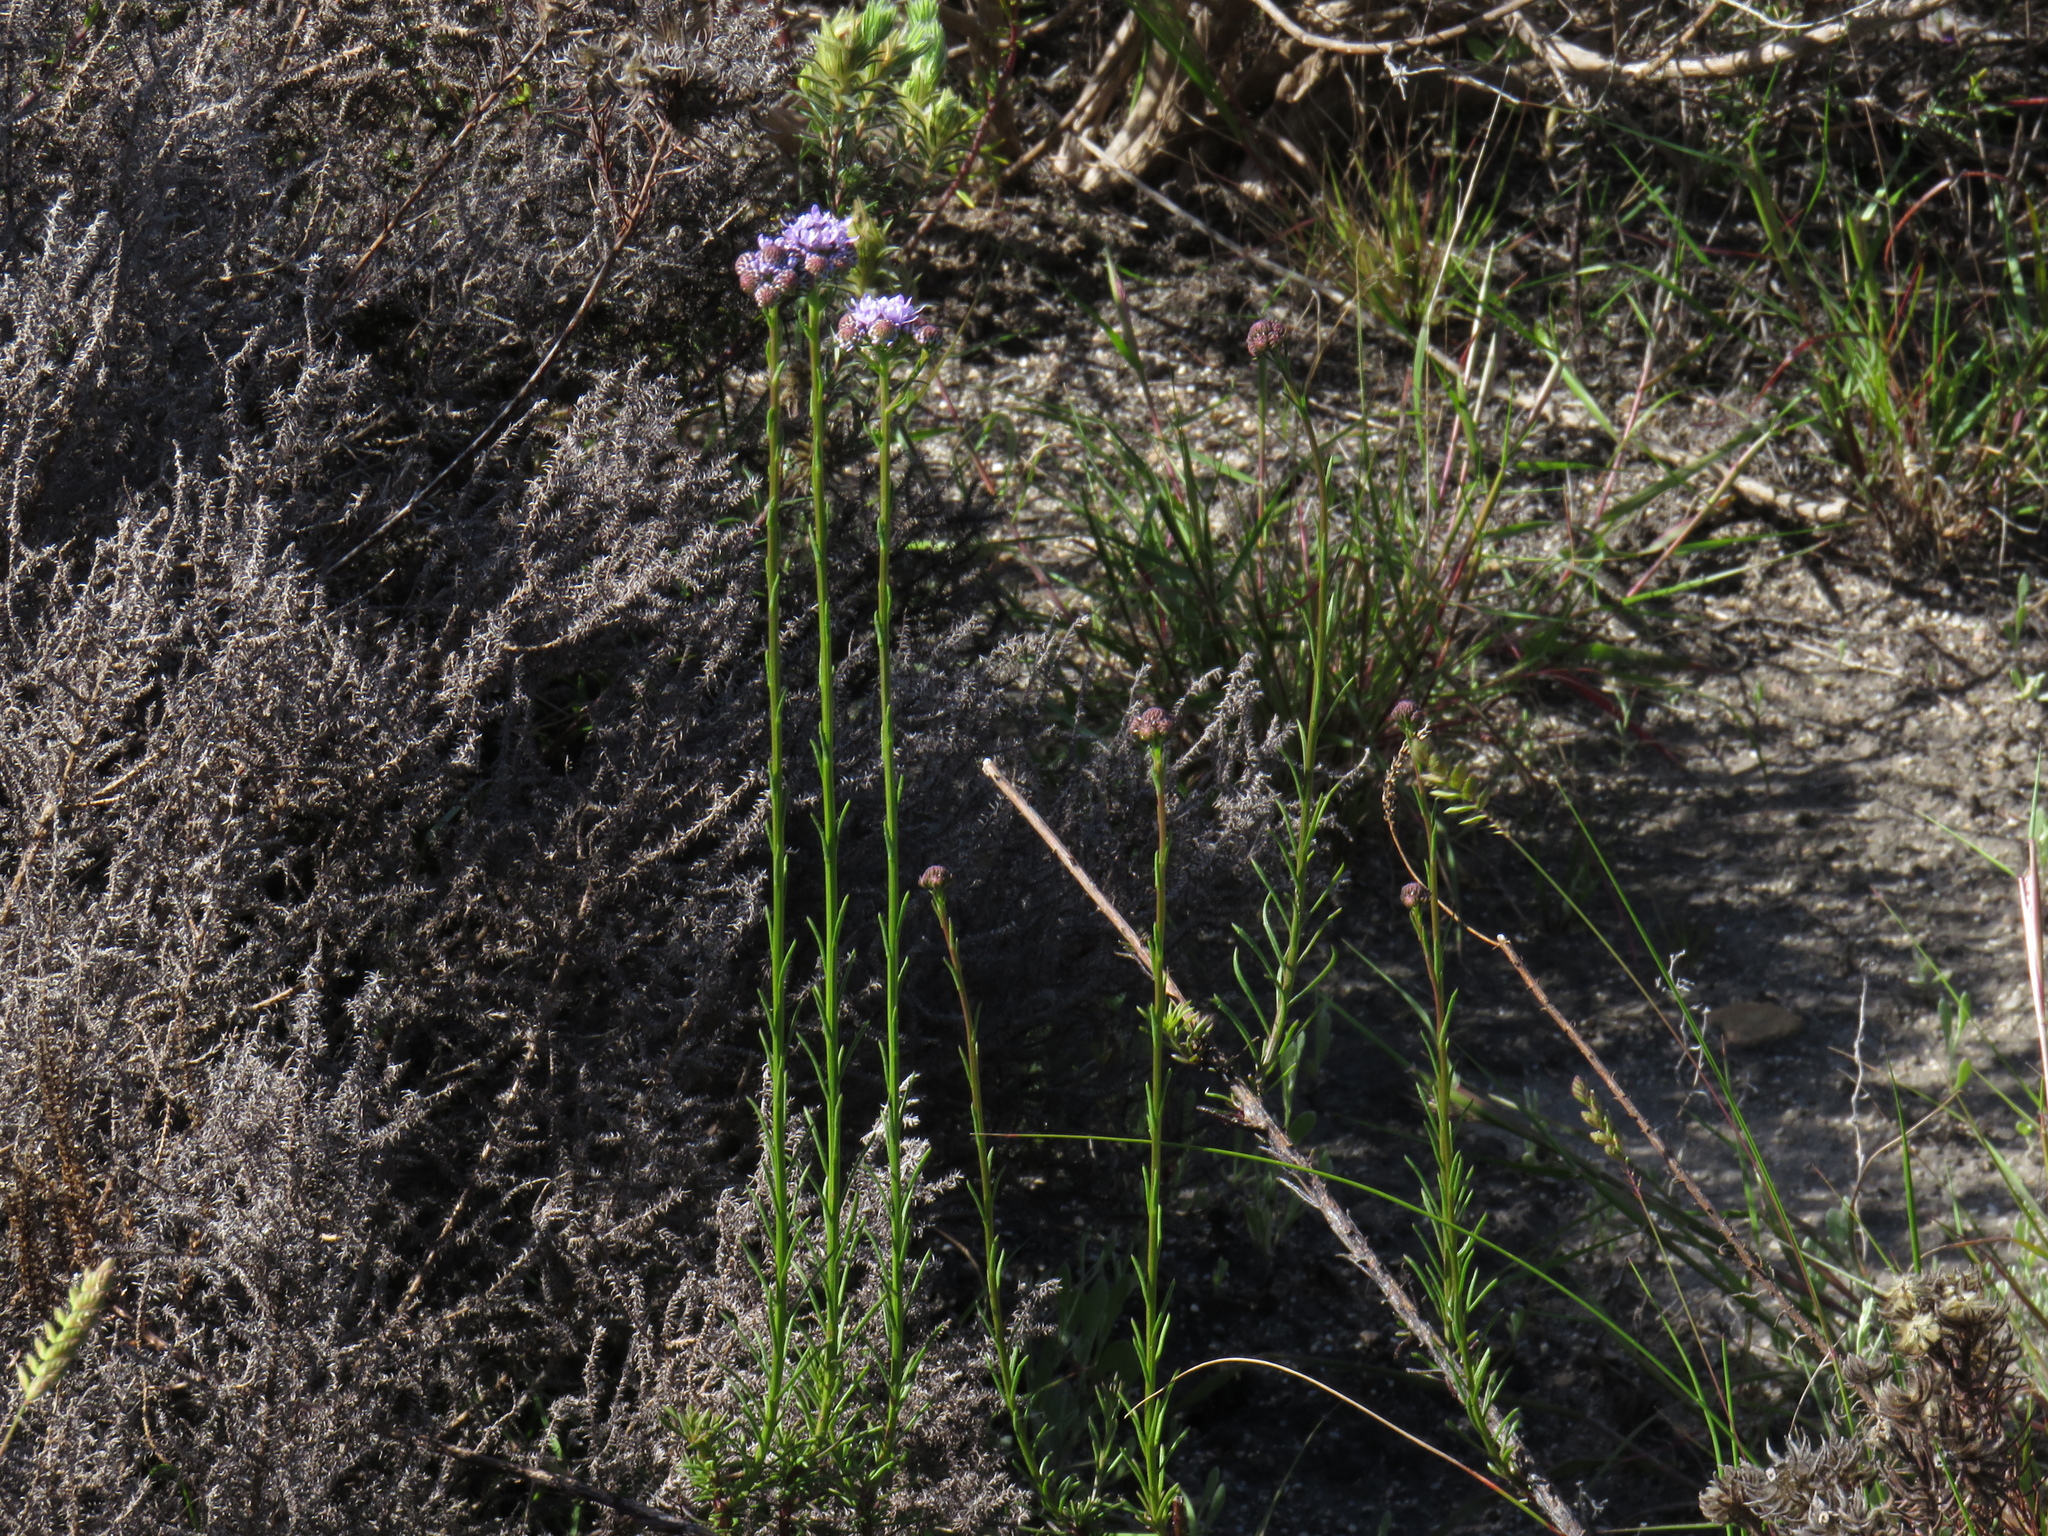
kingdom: Plantae
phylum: Tracheophyta
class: Magnoliopsida
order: Lamiales
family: Scrophulariaceae
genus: Pseudoselago
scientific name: Pseudoselago spuria
